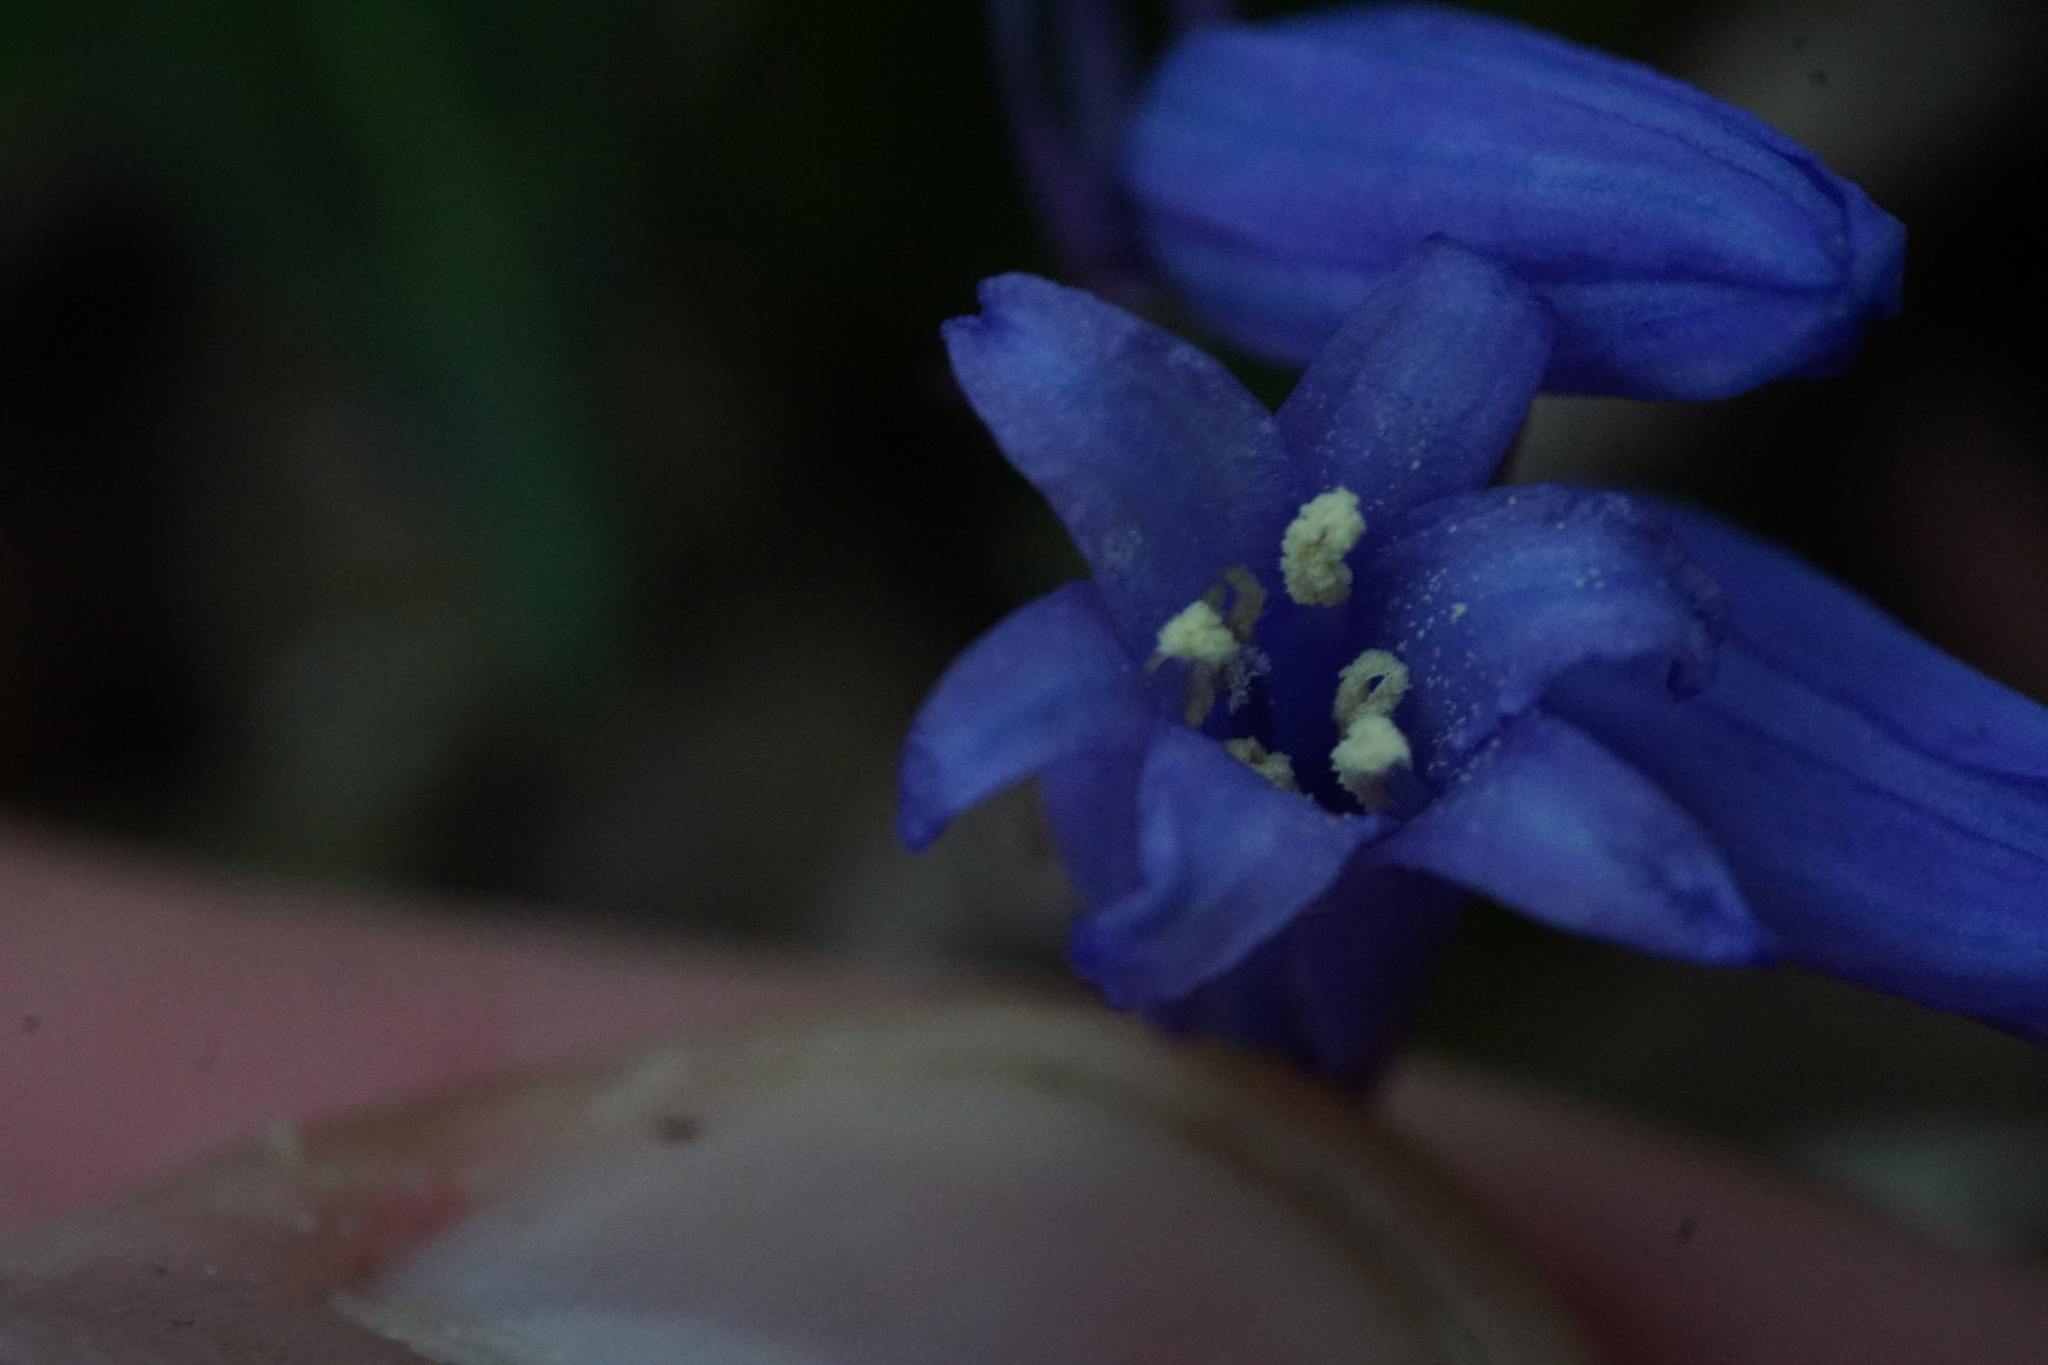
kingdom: Plantae
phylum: Tracheophyta
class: Liliopsida
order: Asparagales
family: Asparagaceae
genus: Hyacinthoides
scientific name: Hyacinthoides non-scripta
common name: Bluebell
